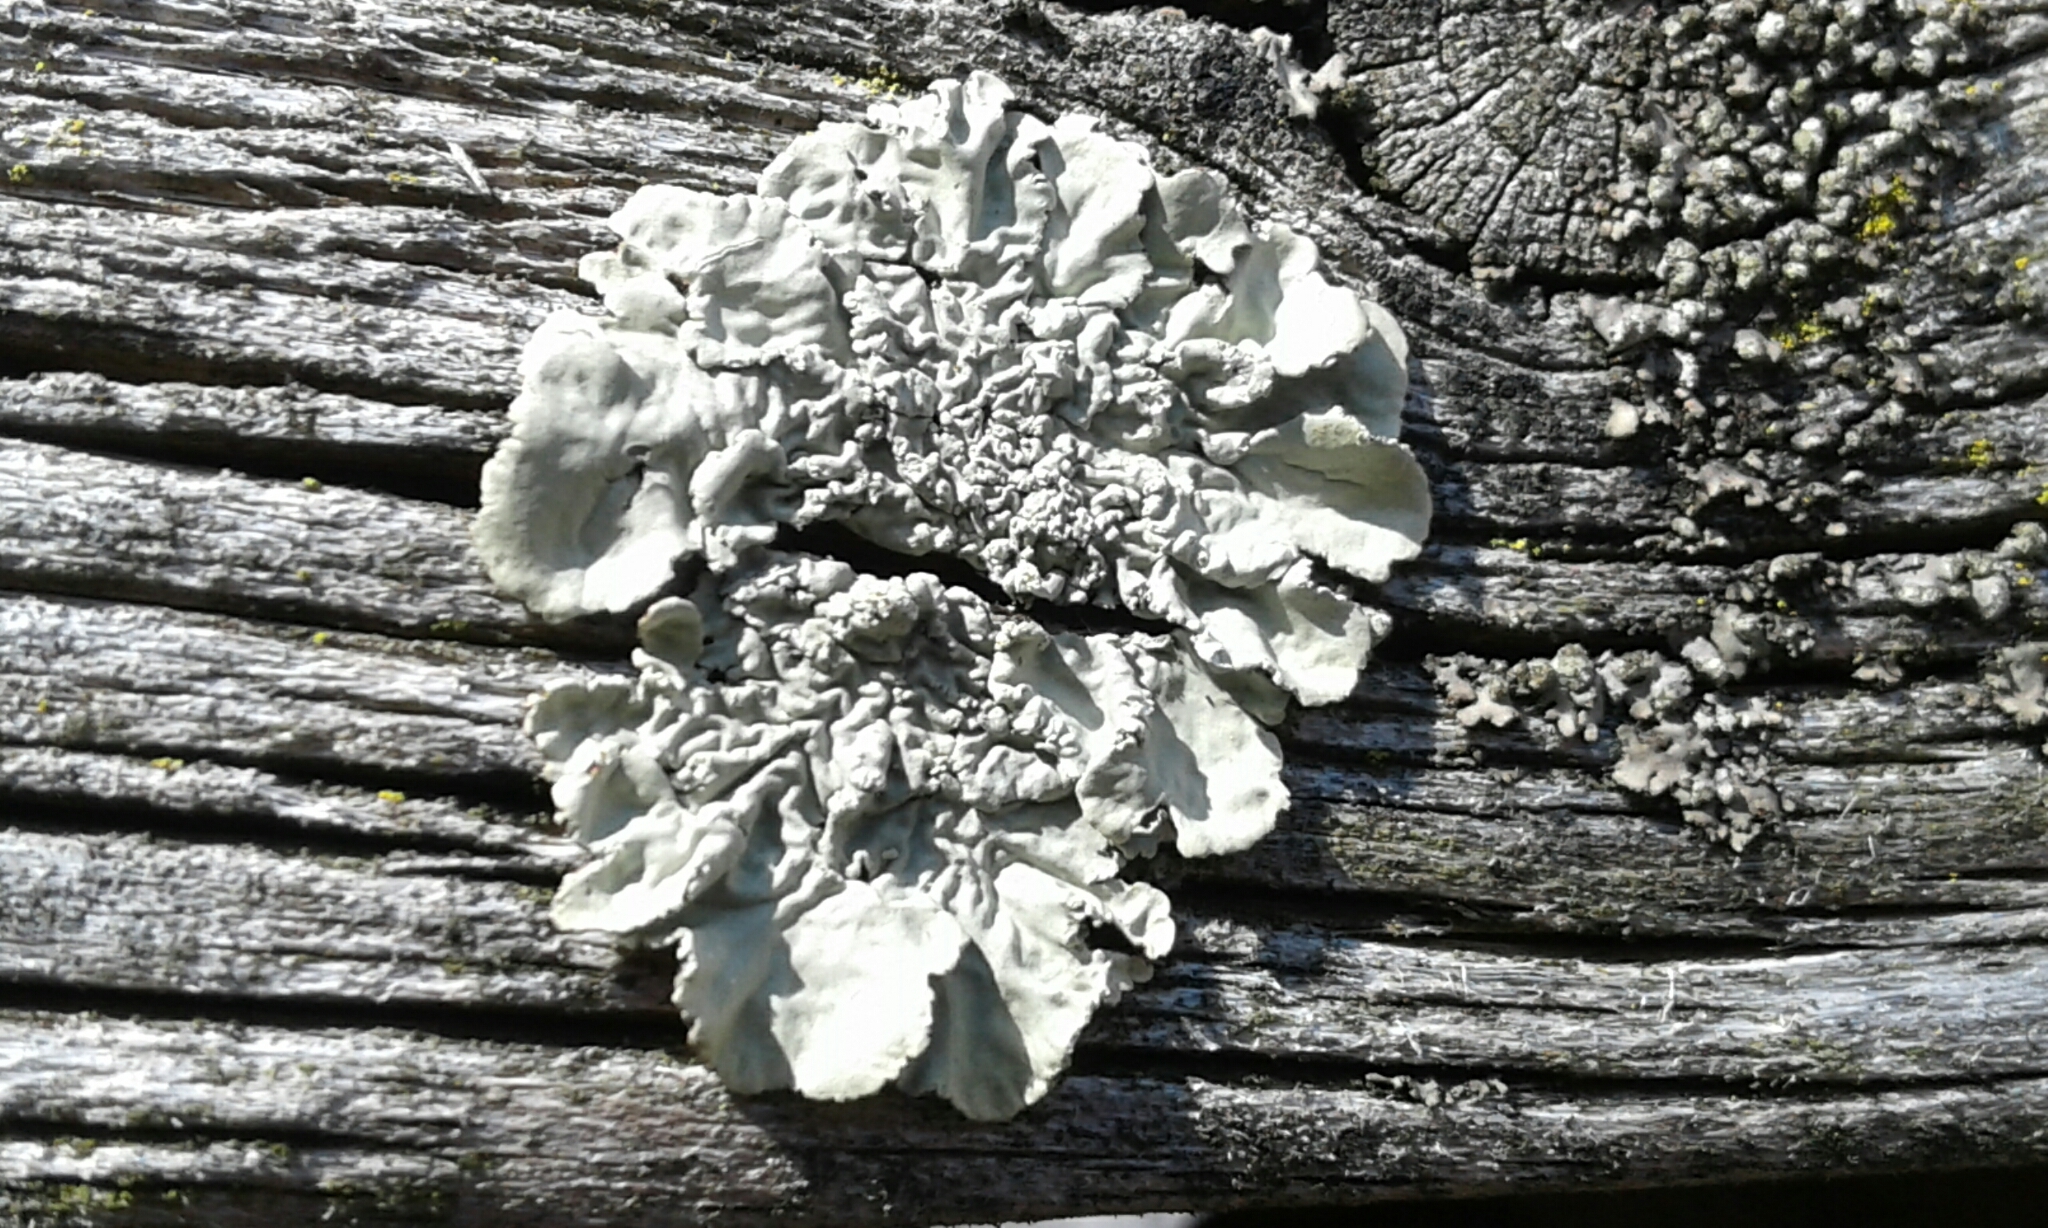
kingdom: Fungi
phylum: Ascomycota
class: Lecanoromycetes
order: Lecanorales
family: Parmeliaceae
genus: Flavoparmelia
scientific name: Flavoparmelia caperata
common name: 40-mile per hour lichen
